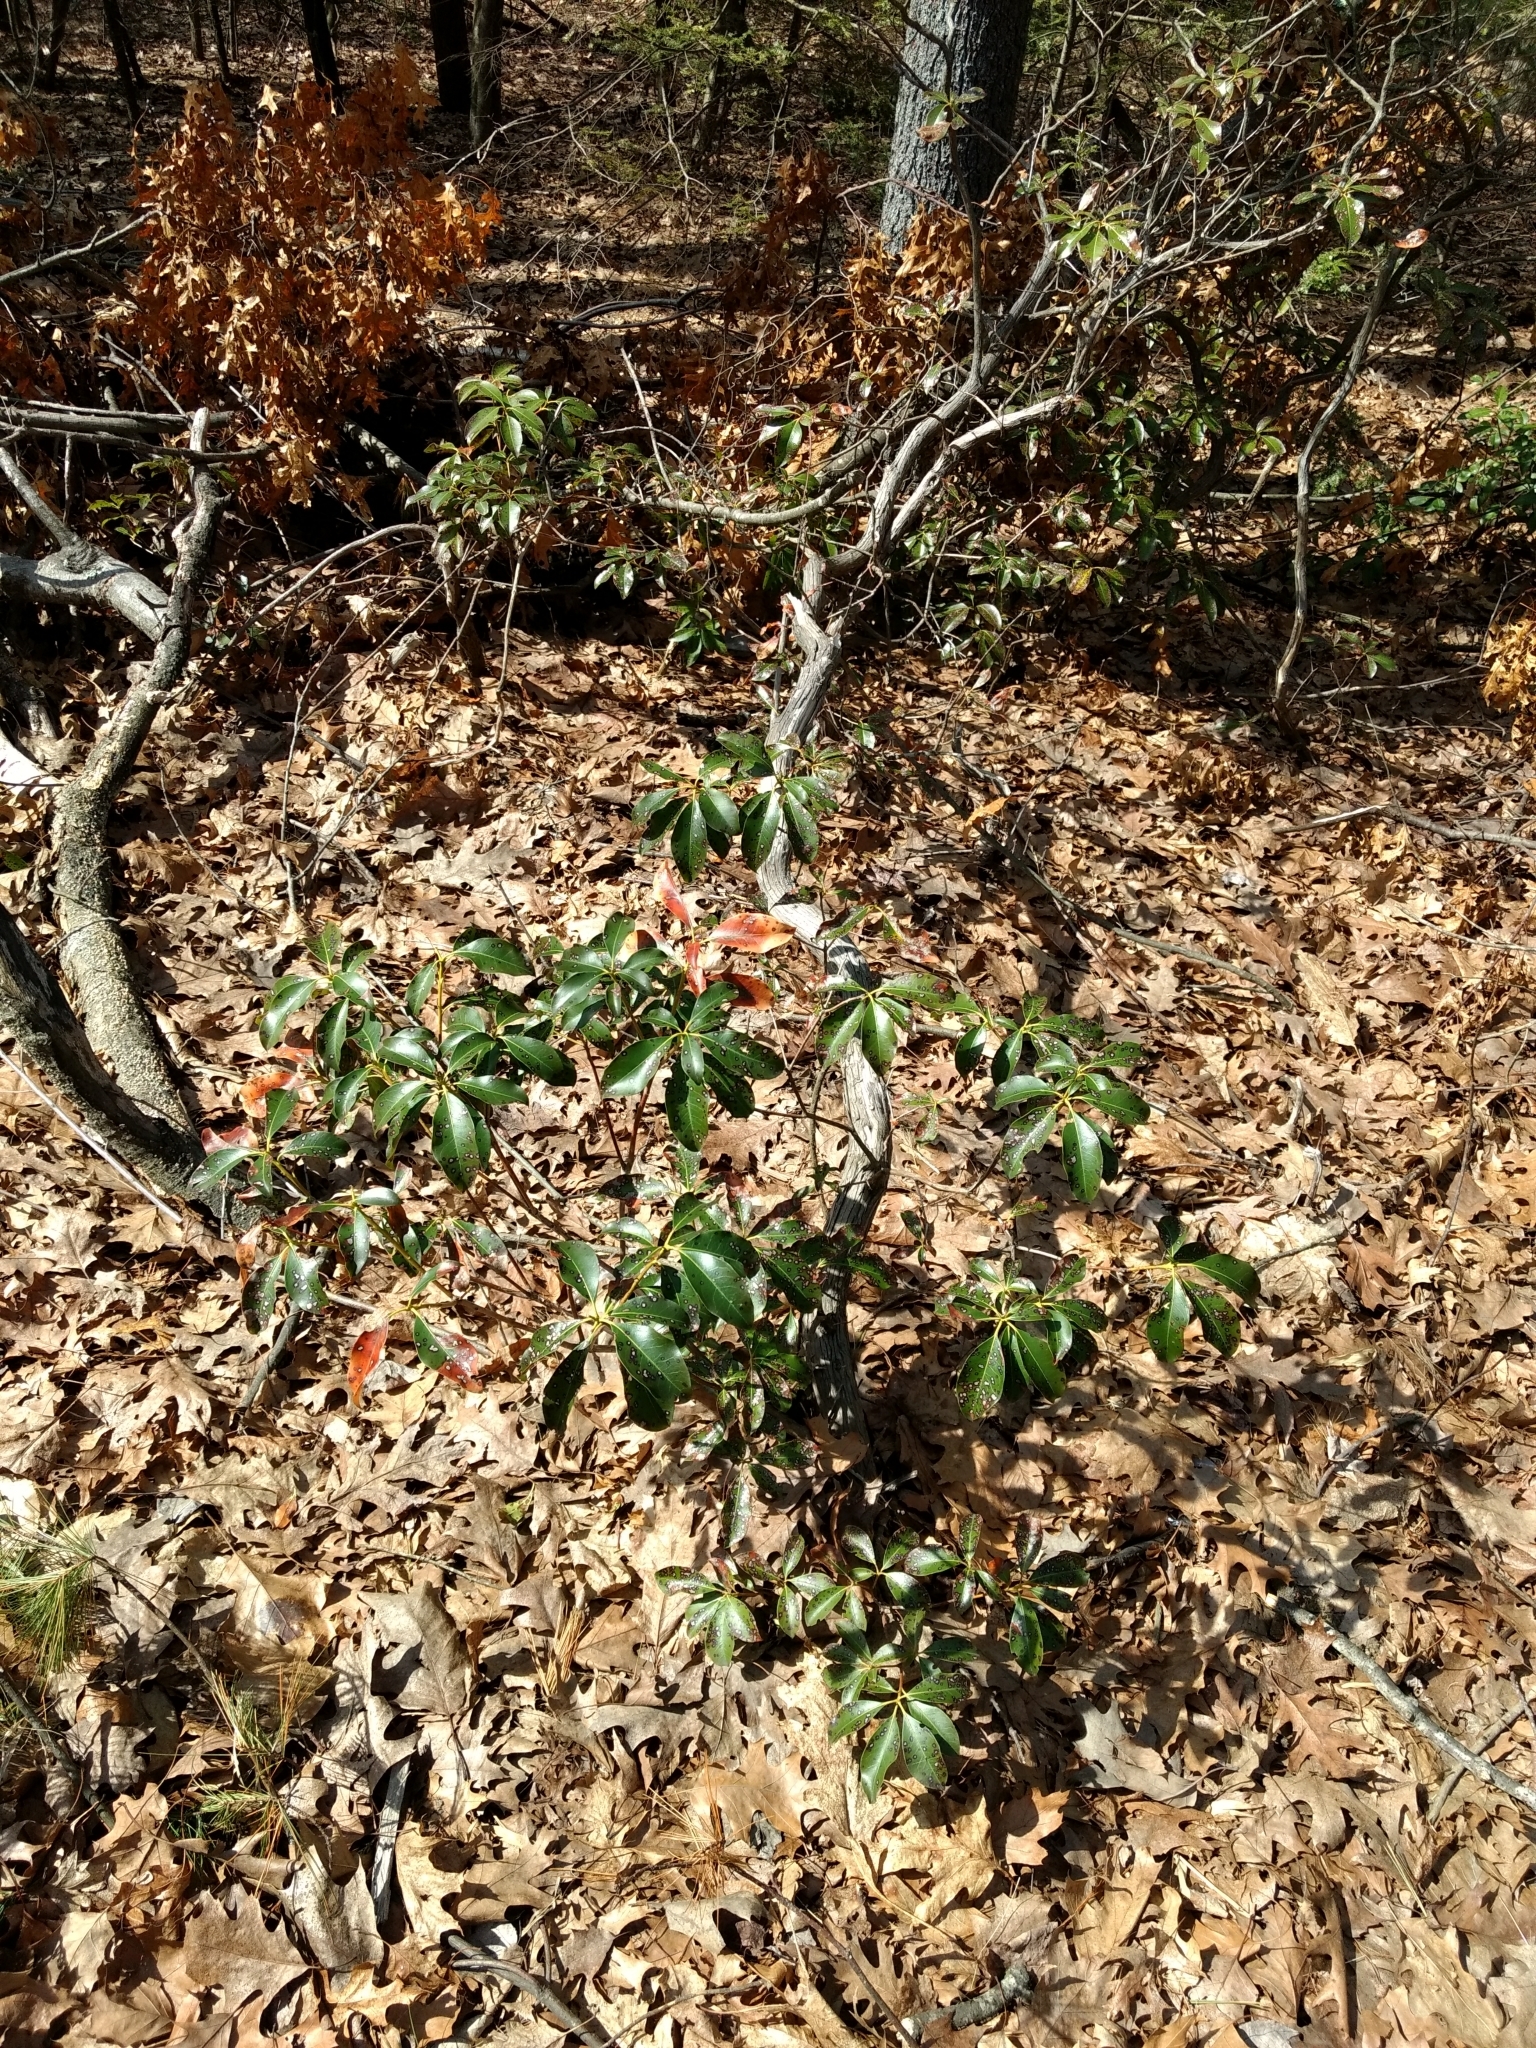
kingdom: Plantae
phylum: Tracheophyta
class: Magnoliopsida
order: Ericales
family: Ericaceae
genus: Kalmia
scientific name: Kalmia latifolia
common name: Mountain-laurel
